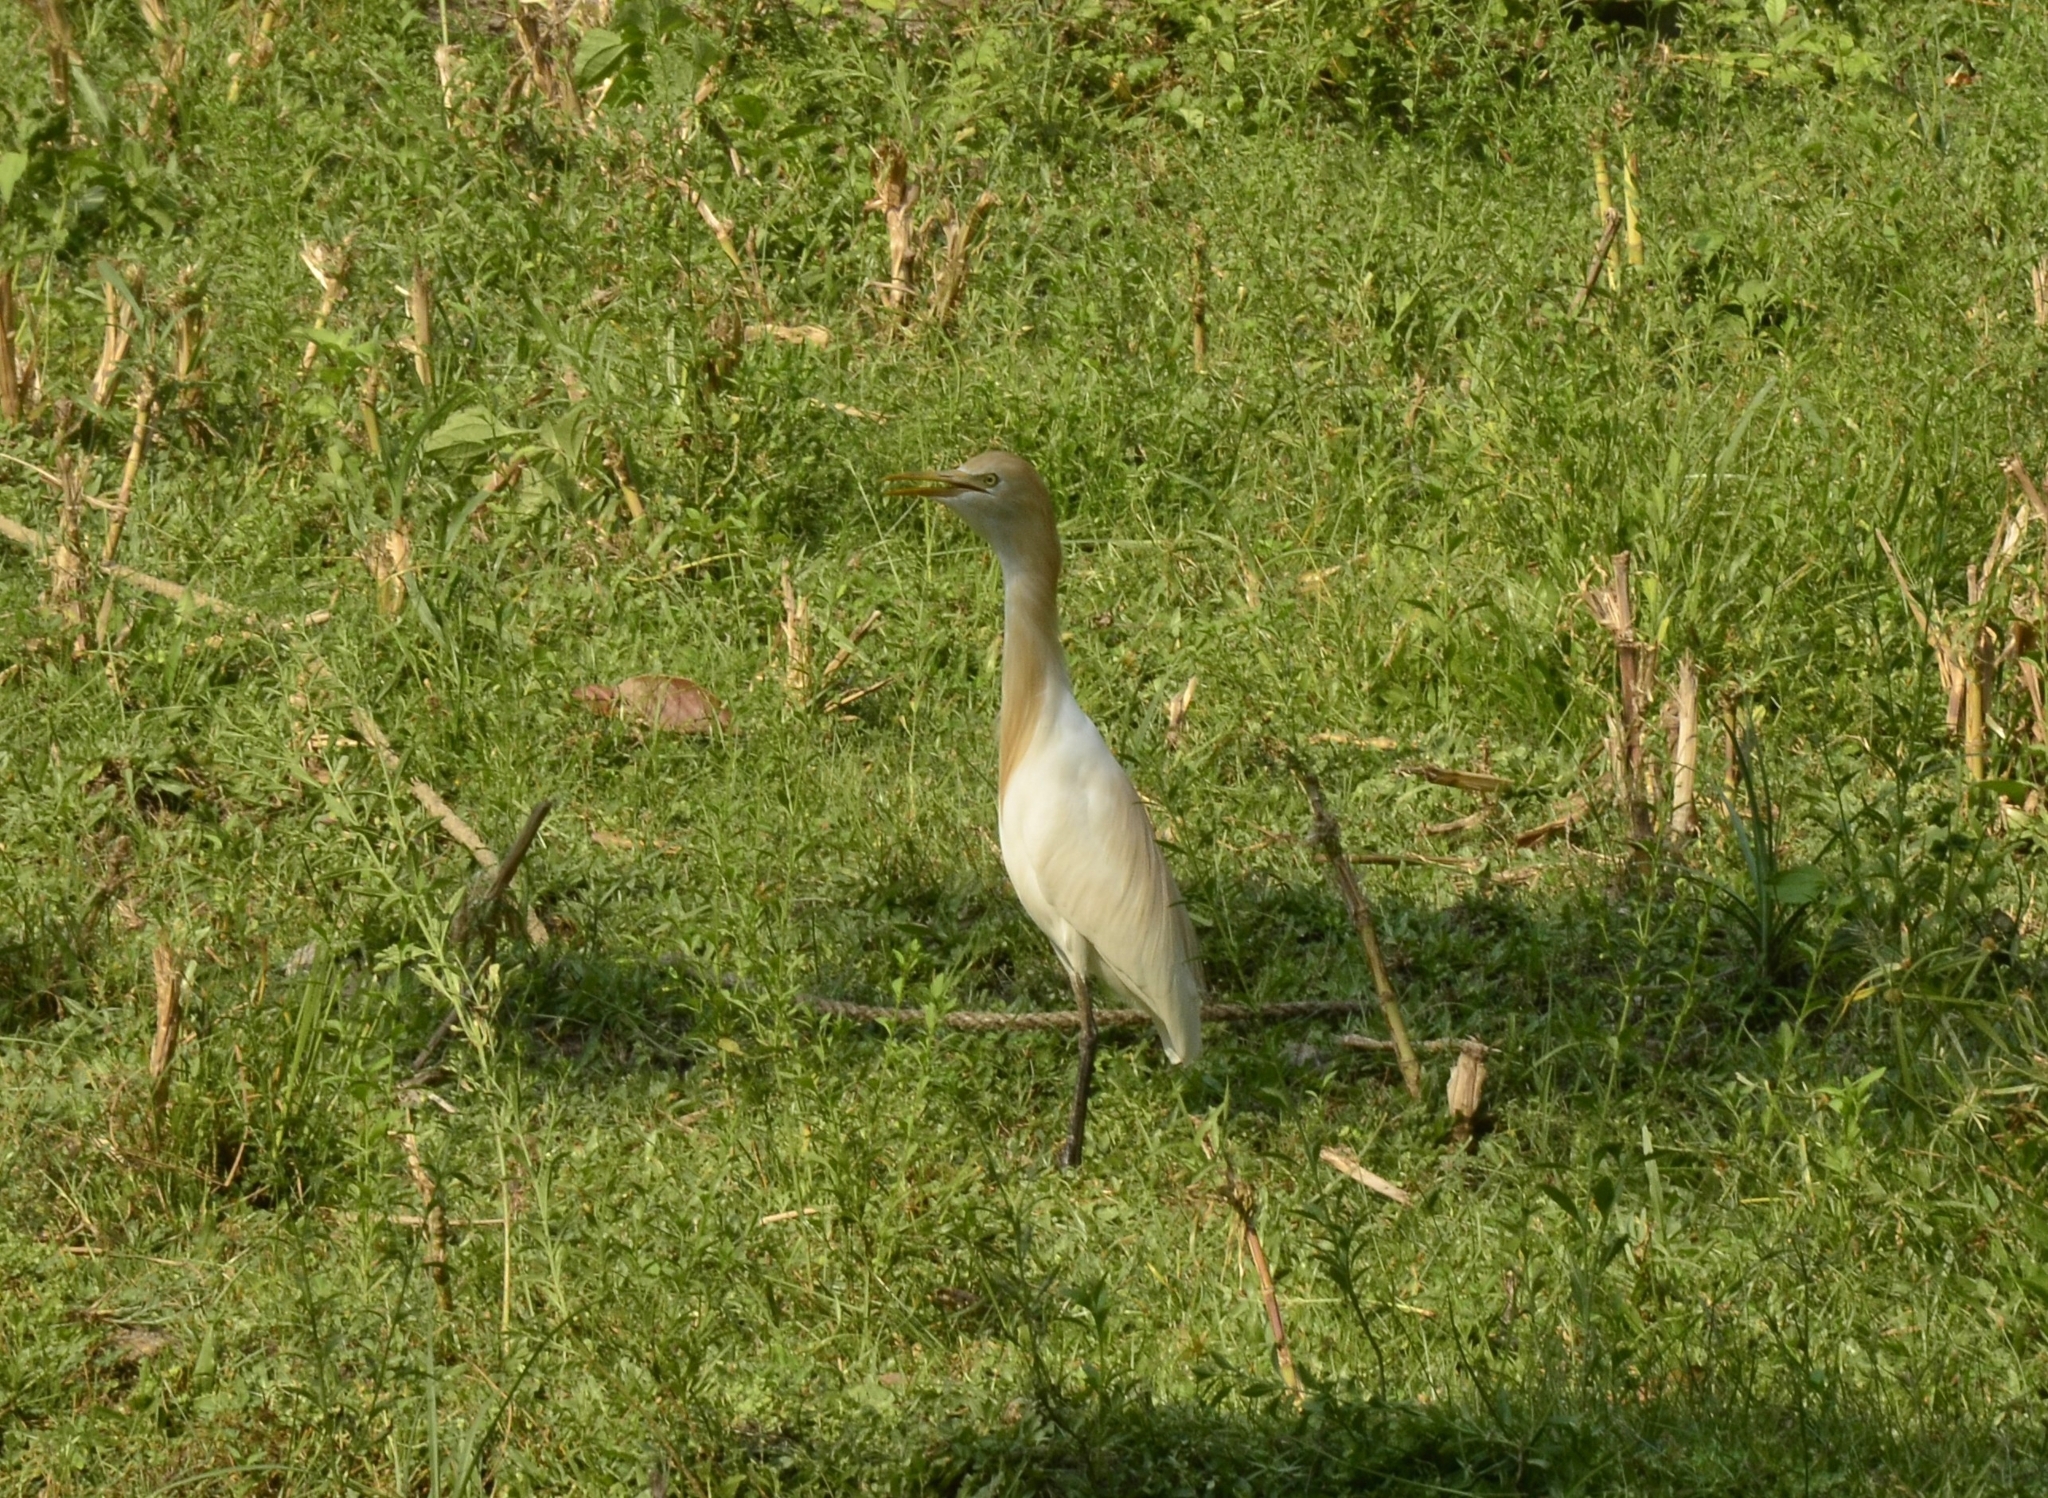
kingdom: Animalia
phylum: Chordata
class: Aves
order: Pelecaniformes
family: Ardeidae
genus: Bubulcus
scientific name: Bubulcus coromandus
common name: Eastern cattle egret
